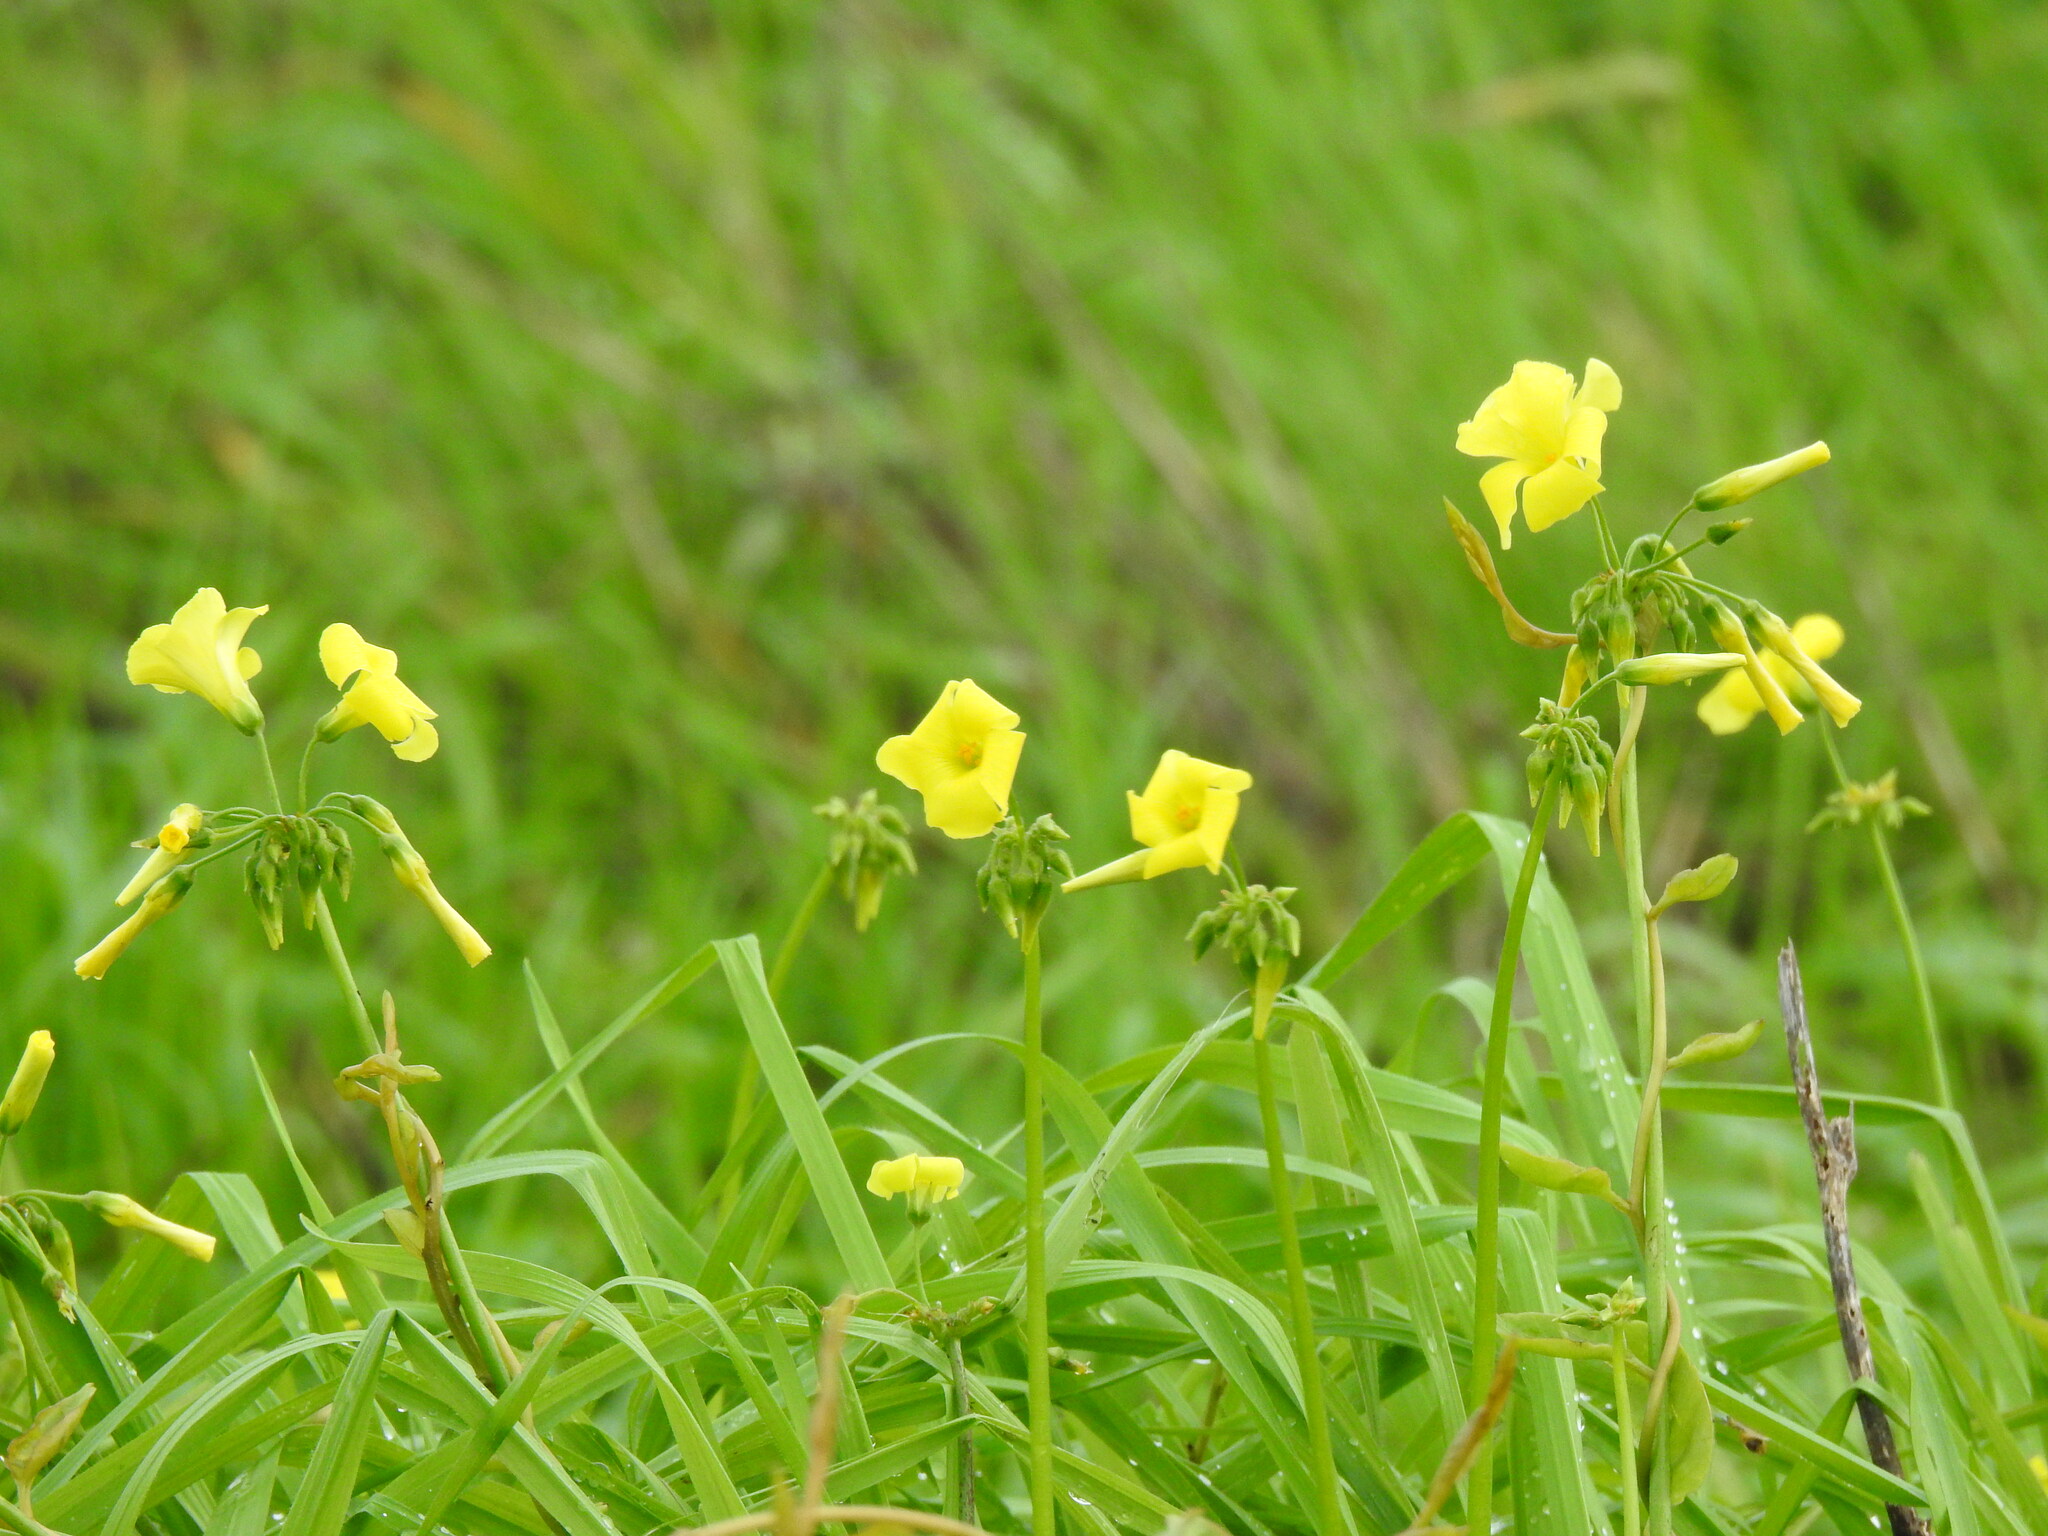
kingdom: Plantae
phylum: Tracheophyta
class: Magnoliopsida
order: Oxalidales
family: Oxalidaceae
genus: Oxalis
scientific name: Oxalis pes-caprae
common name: Bermuda-buttercup
